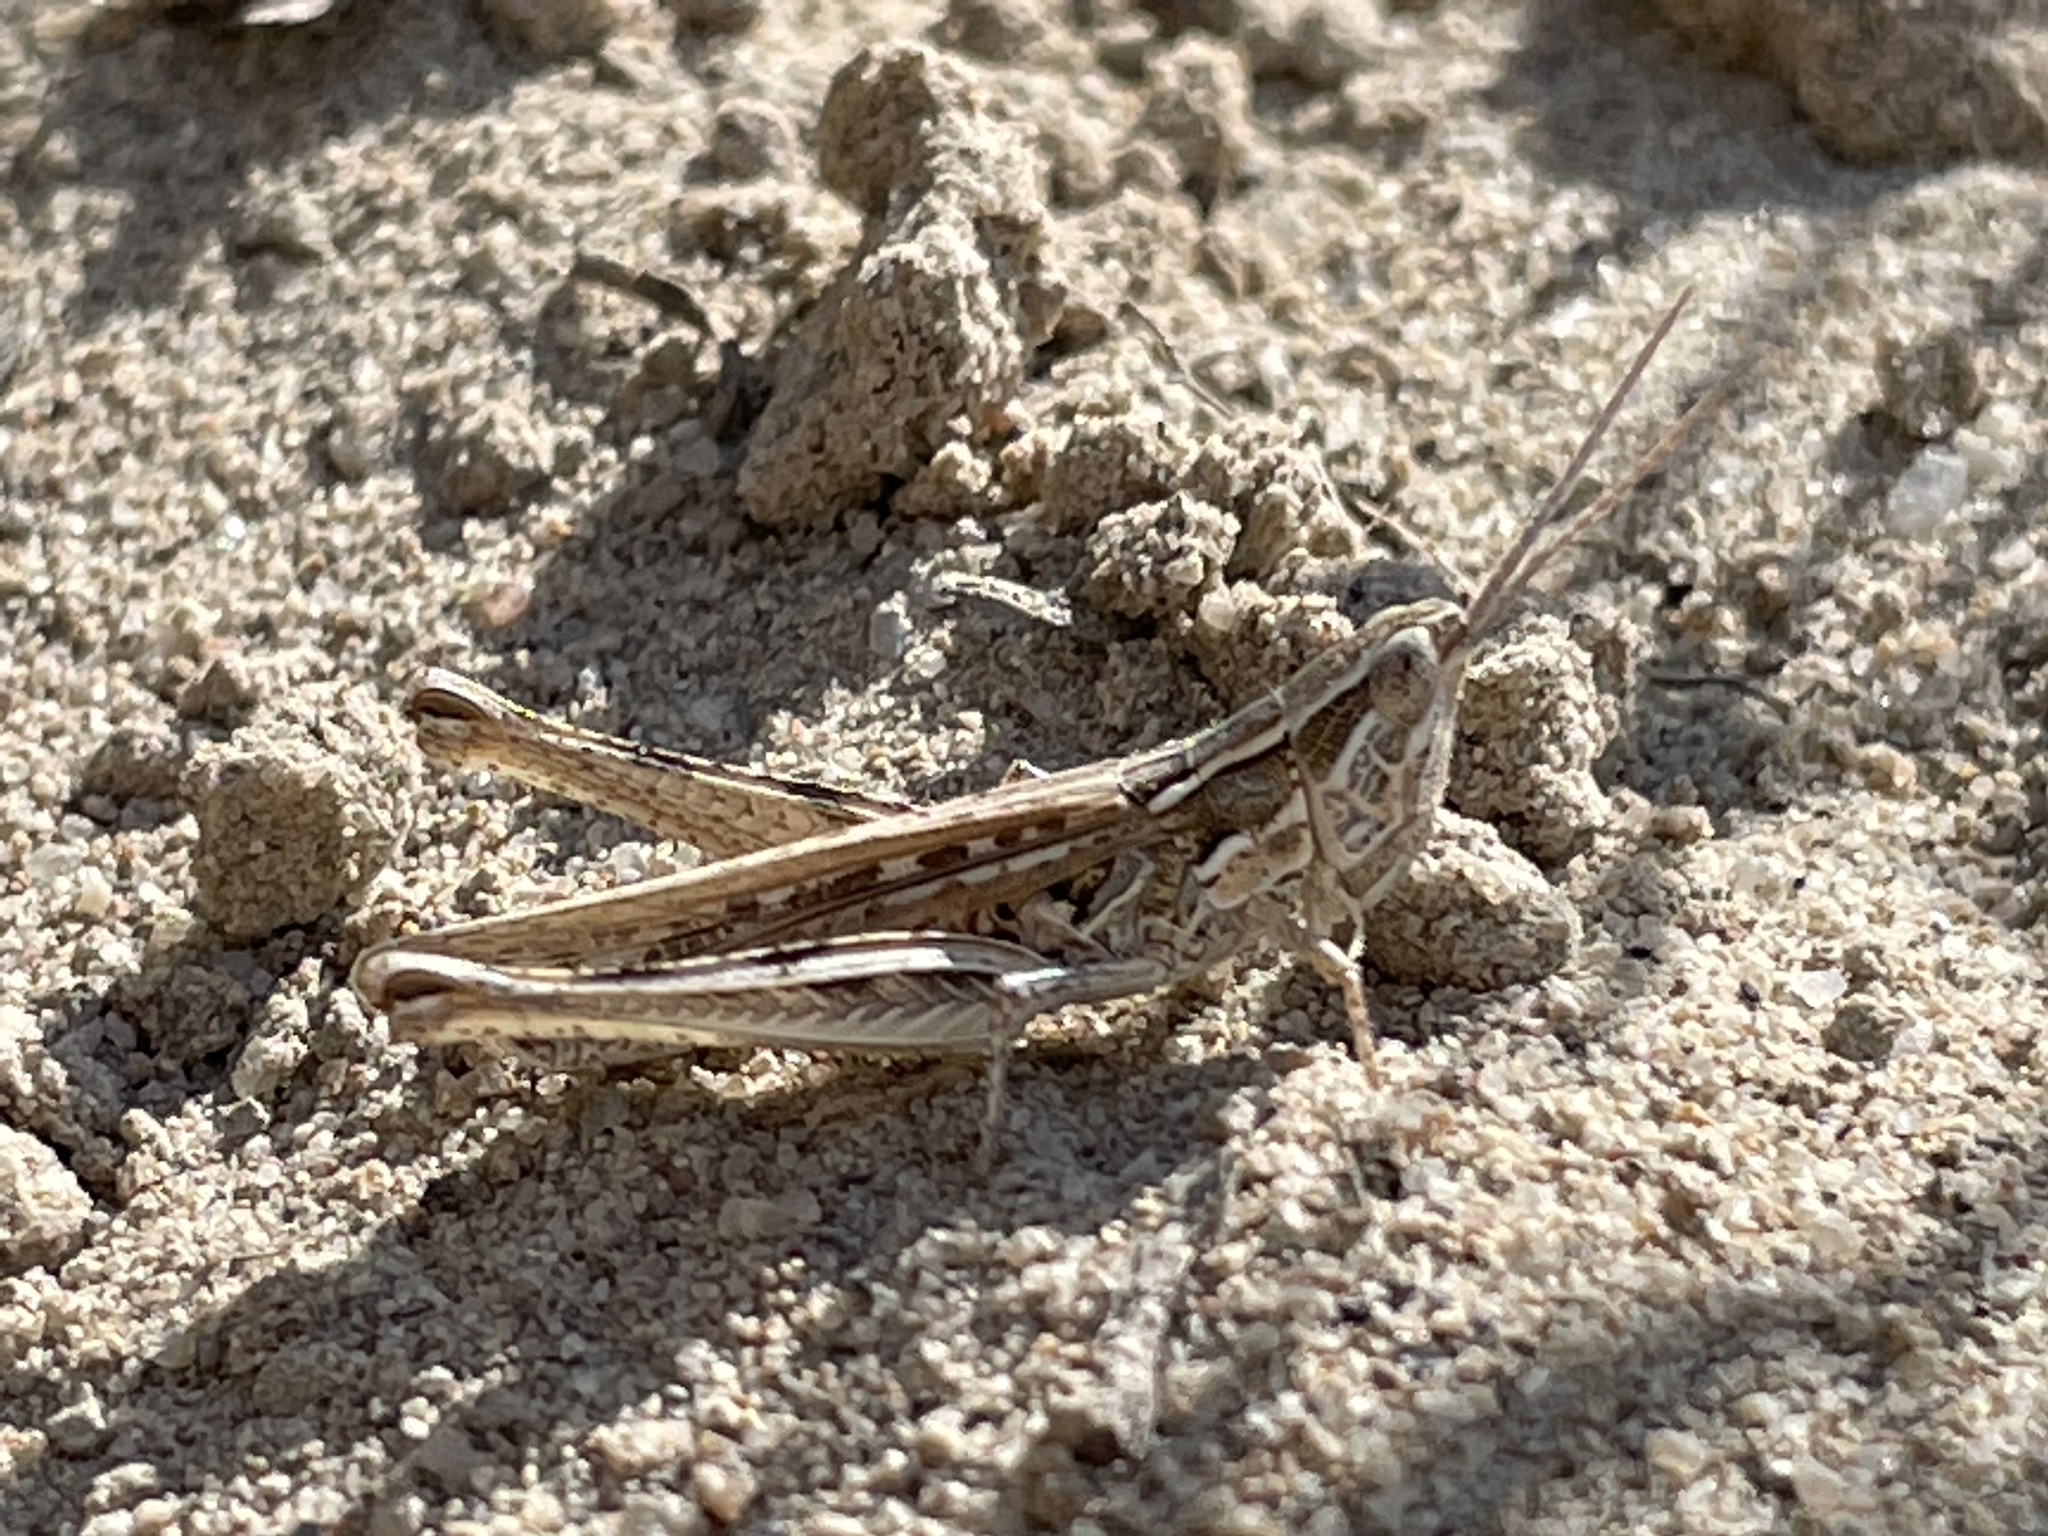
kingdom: Animalia
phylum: Arthropoda
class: Insecta
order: Orthoptera
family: Acrididae
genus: Cordillacris
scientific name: Cordillacris occipitalis
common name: Spotted-winged grasshopper
